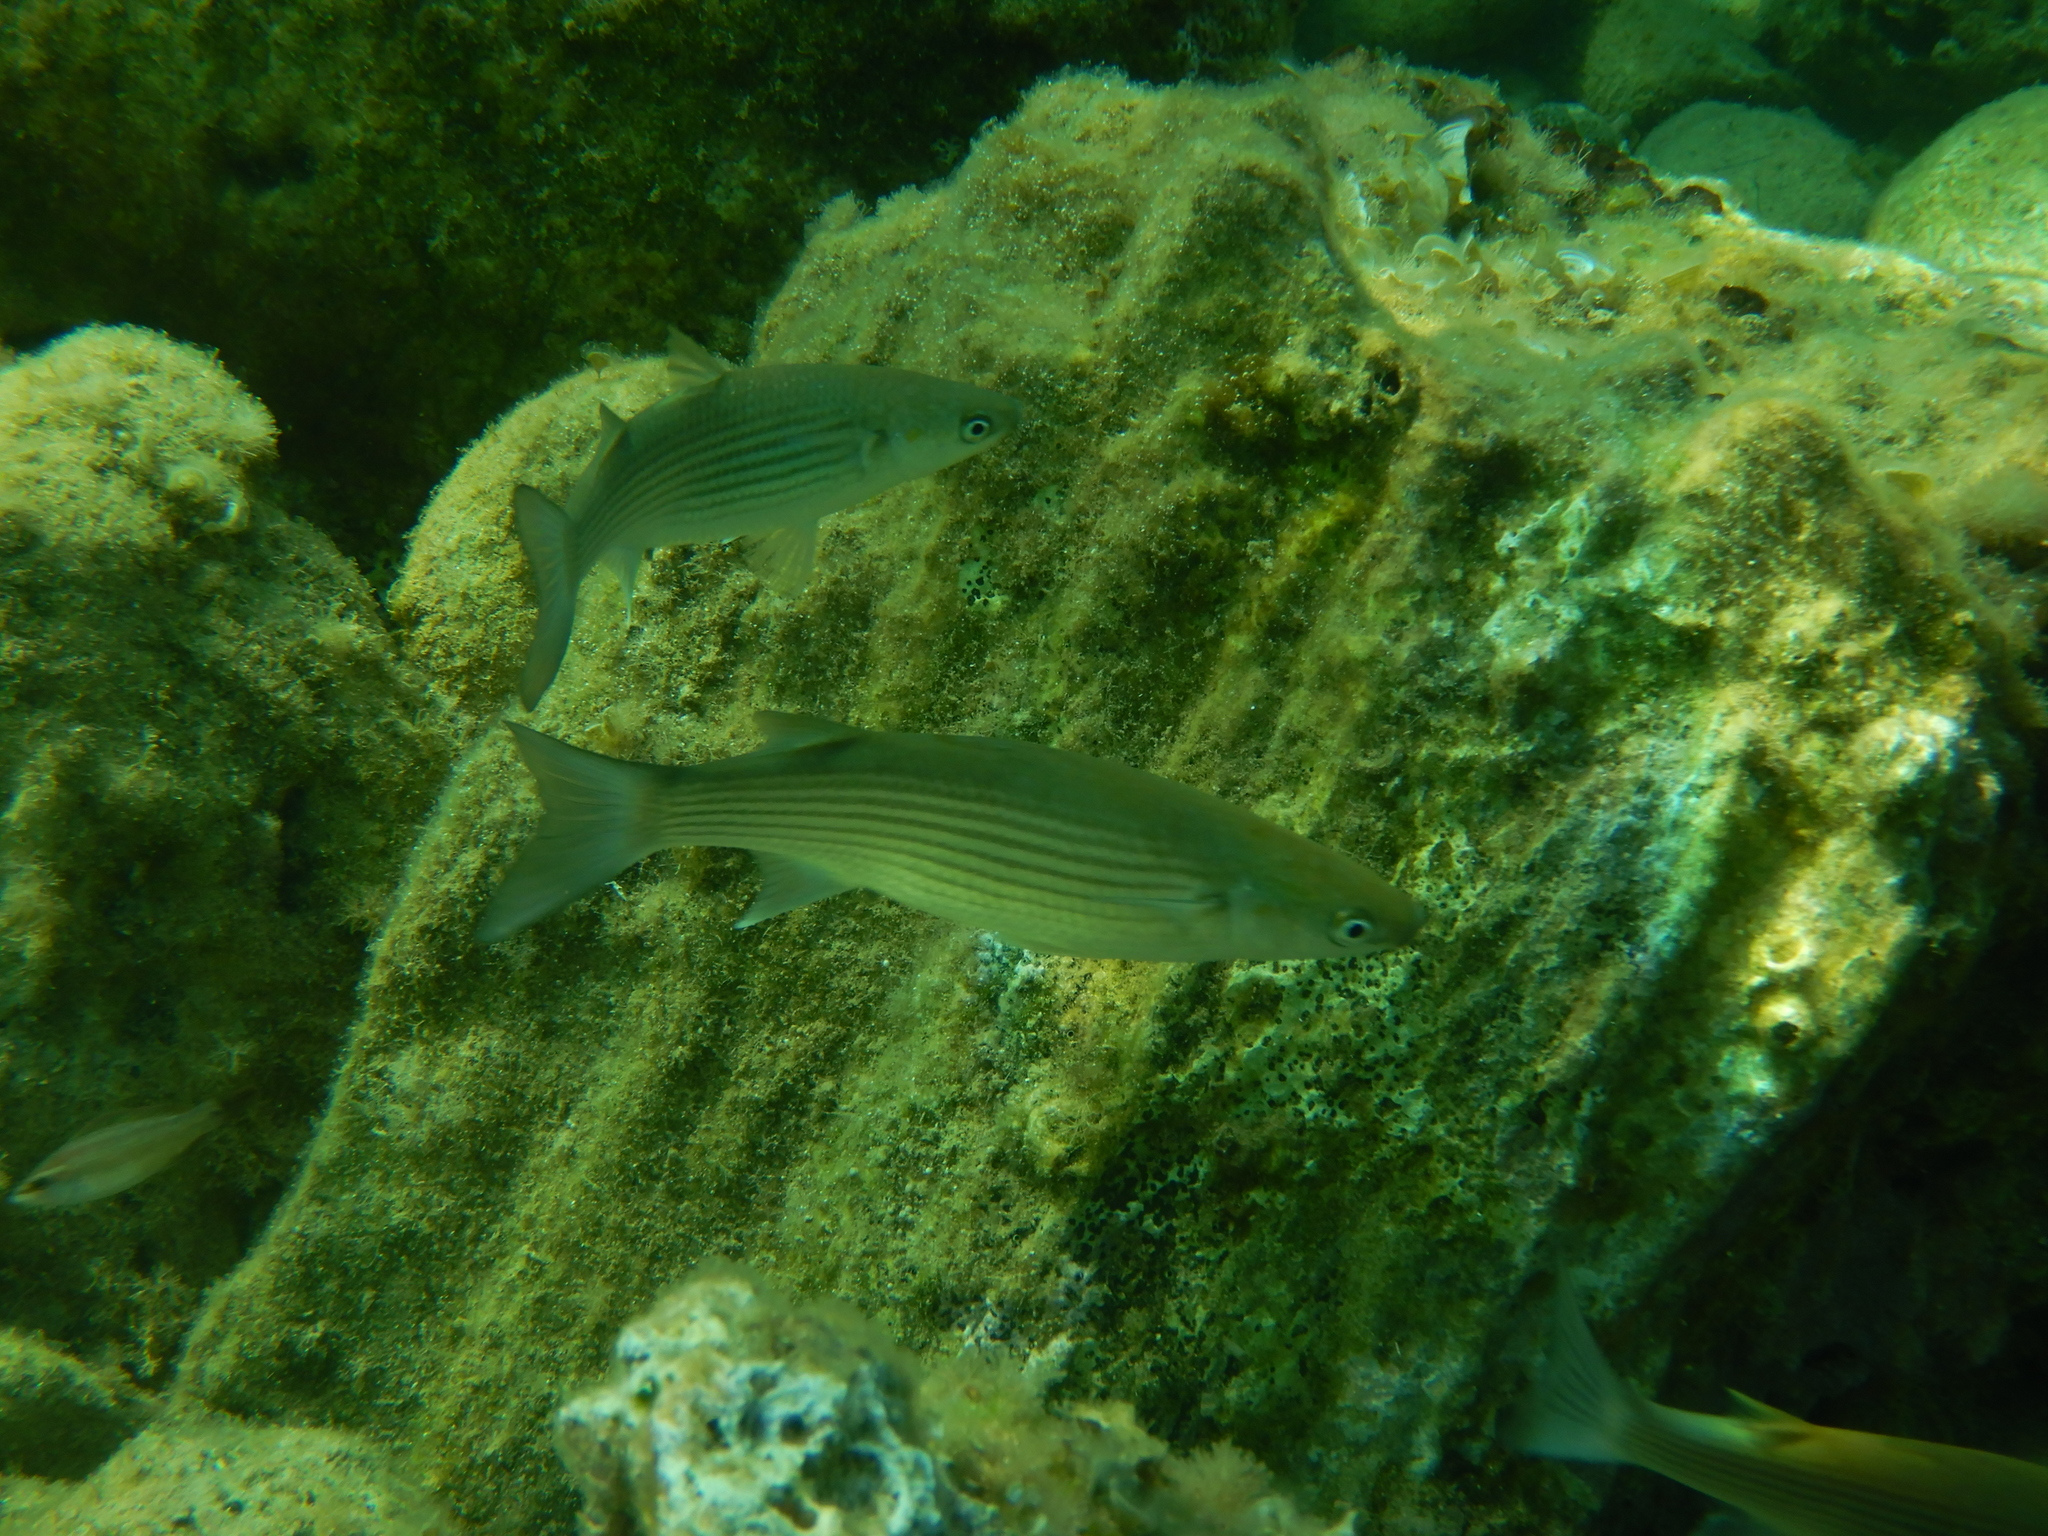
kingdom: Animalia
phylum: Chordata
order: Mugiliformes
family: Mugilidae
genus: Chelon
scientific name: Chelon
